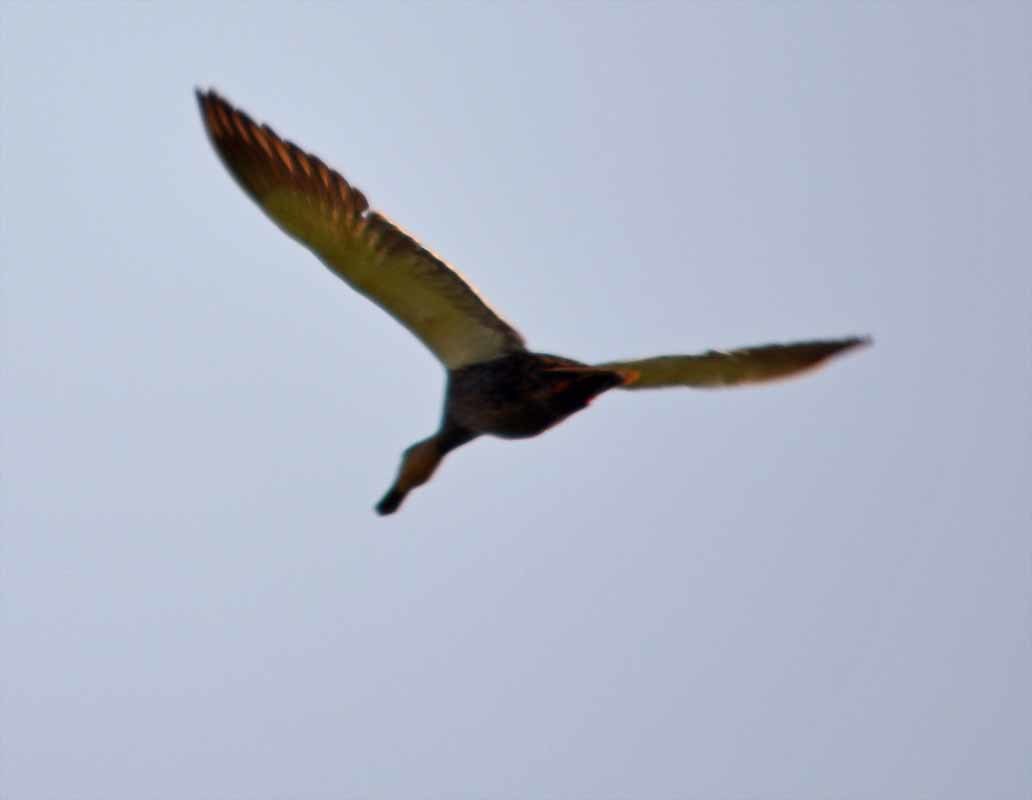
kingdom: Animalia
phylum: Chordata
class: Aves
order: Anseriformes
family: Anatidae
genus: Anas
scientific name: Anas diazi
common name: Mexican duck
